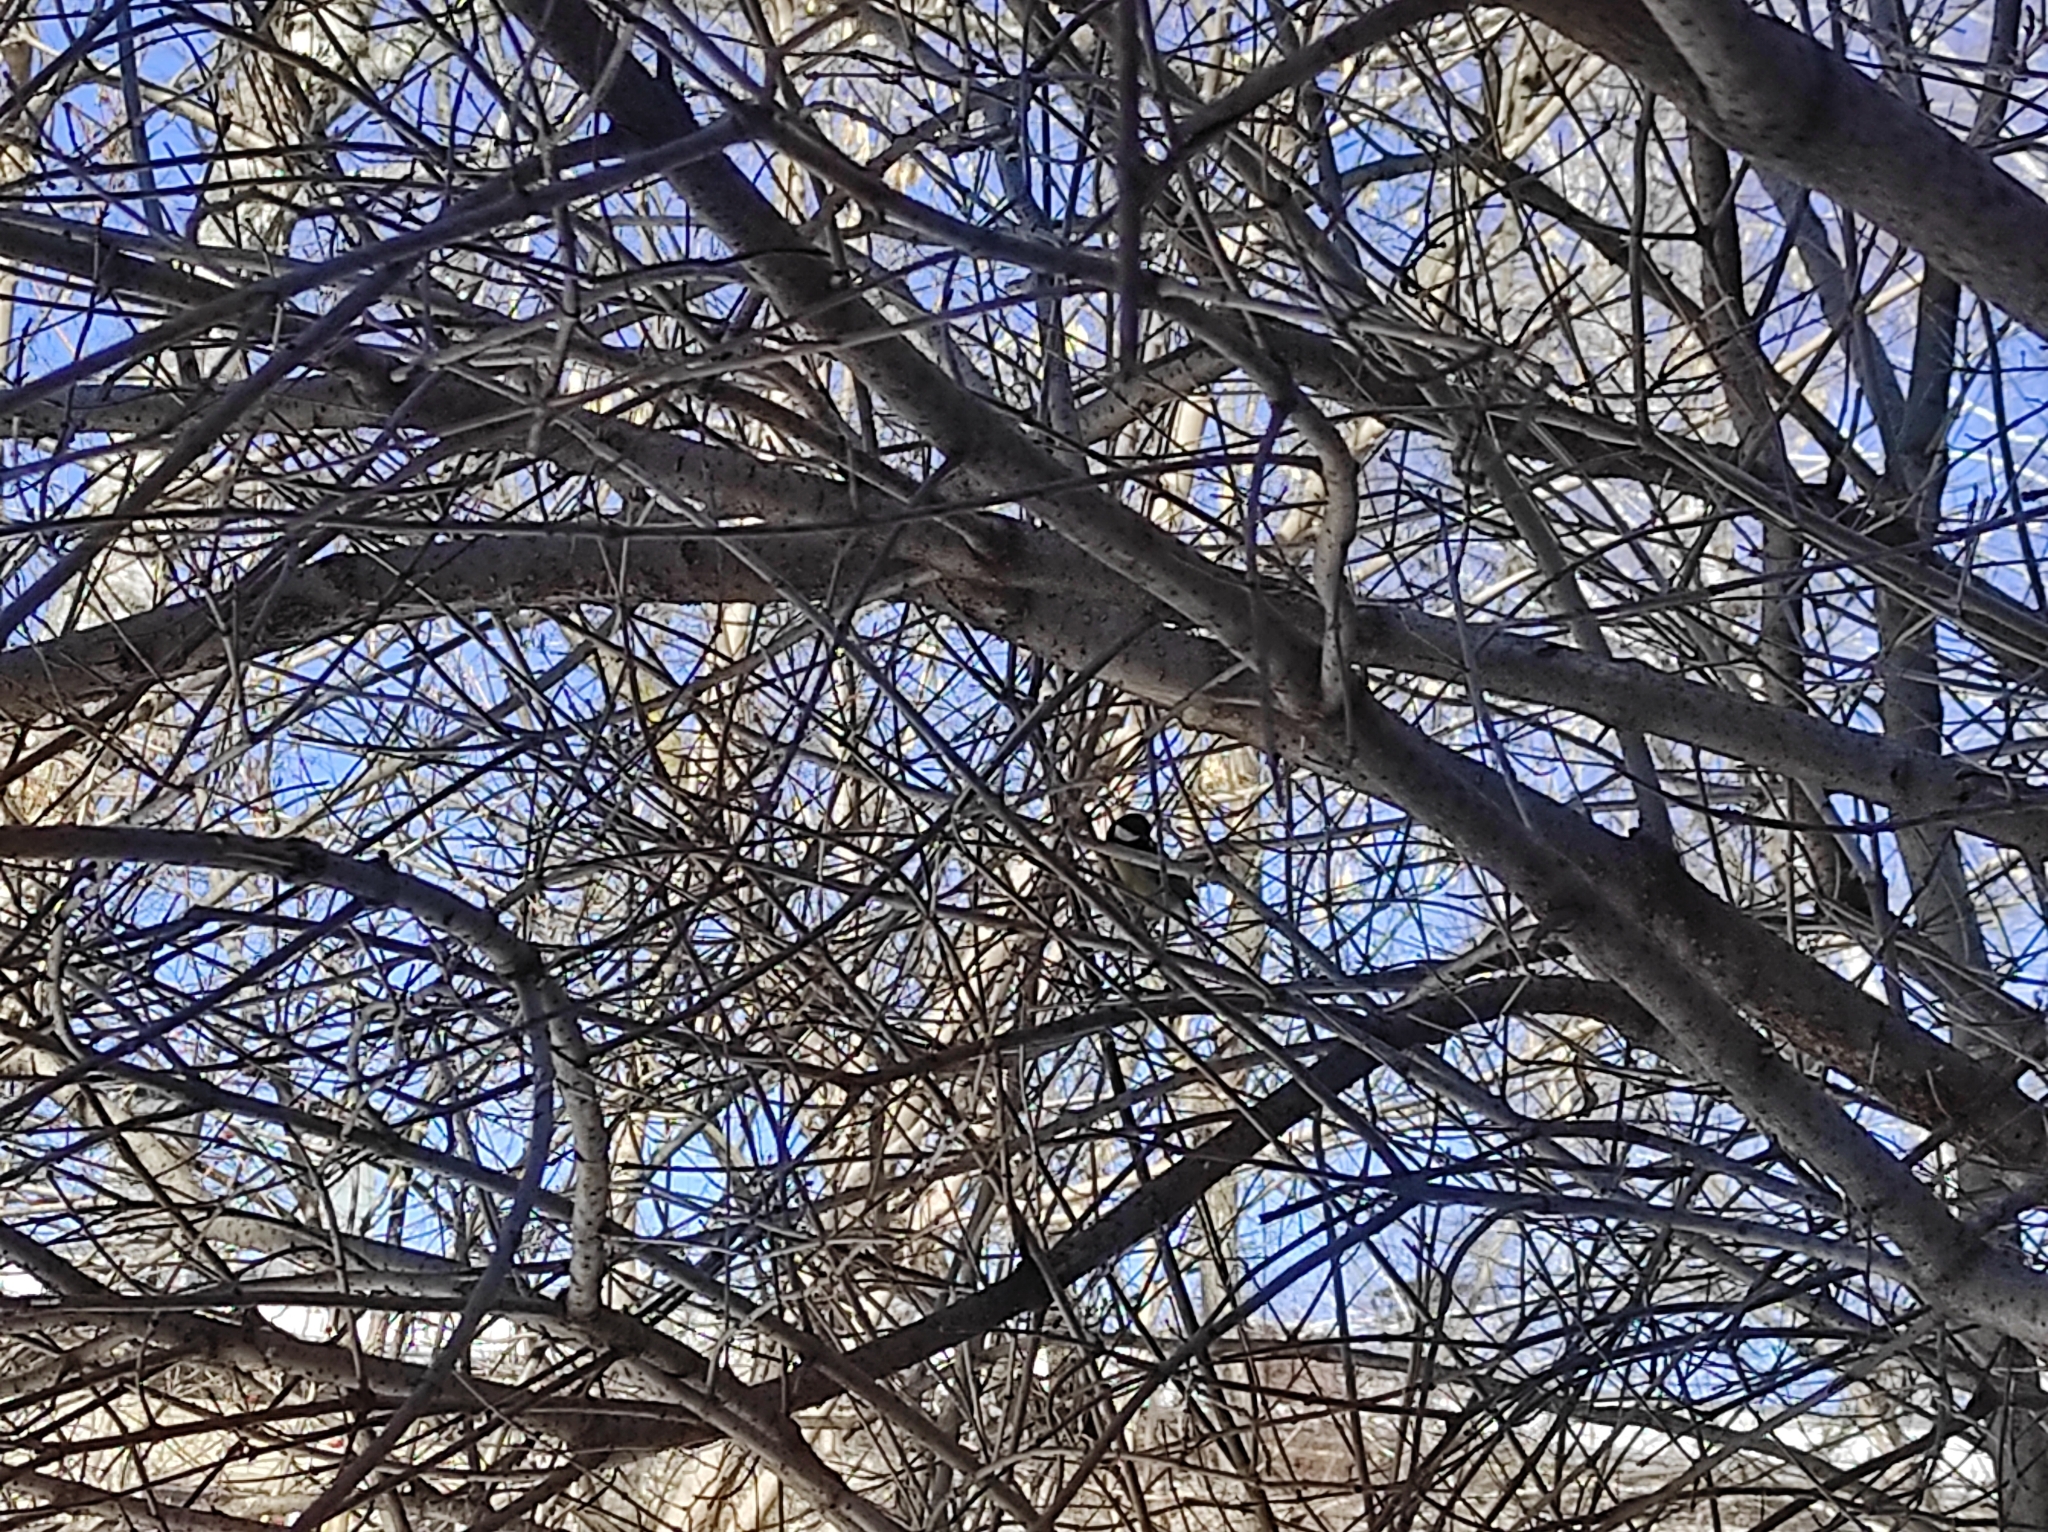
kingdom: Animalia
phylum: Chordata
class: Aves
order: Passeriformes
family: Paridae
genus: Parus
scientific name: Parus major
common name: Great tit
